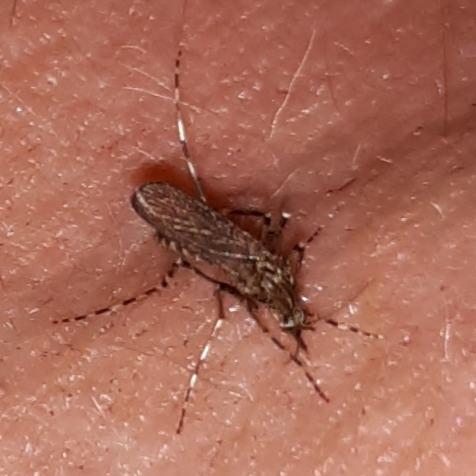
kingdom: Animalia
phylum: Arthropoda
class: Insecta
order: Diptera
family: Culicidae
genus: Coquillettidia
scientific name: Coquillettidia perturbans
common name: Cattail mosquito
